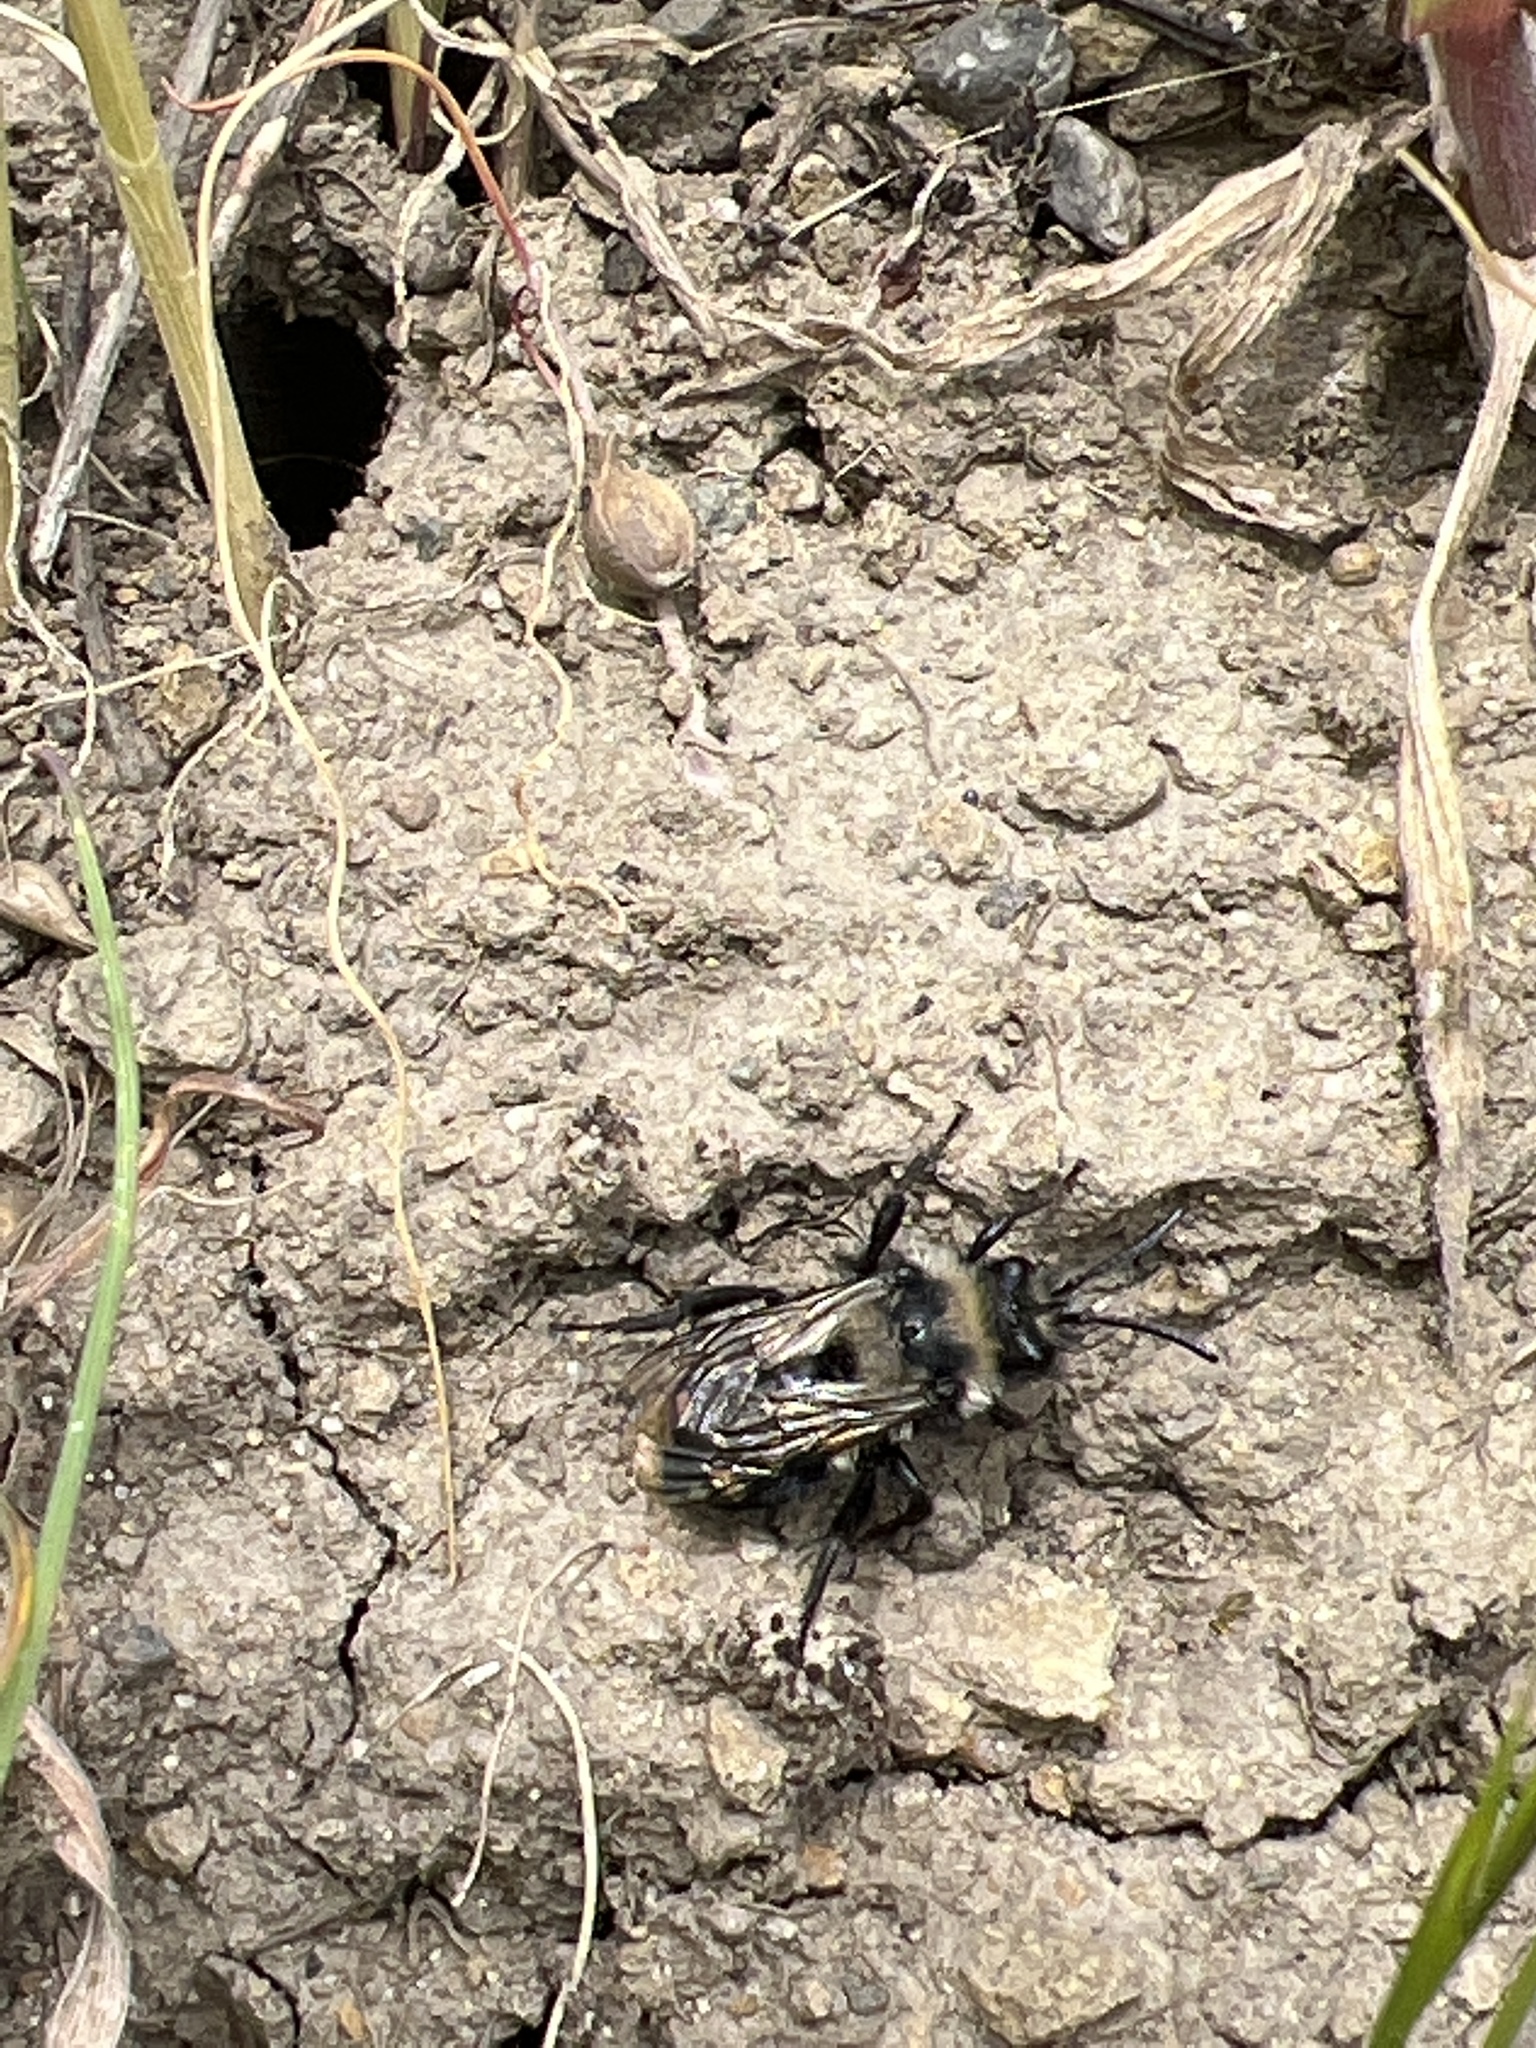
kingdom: Animalia
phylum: Arthropoda
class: Insecta
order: Hymenoptera
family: Apidae
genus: Melecta
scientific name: Melecta separata
